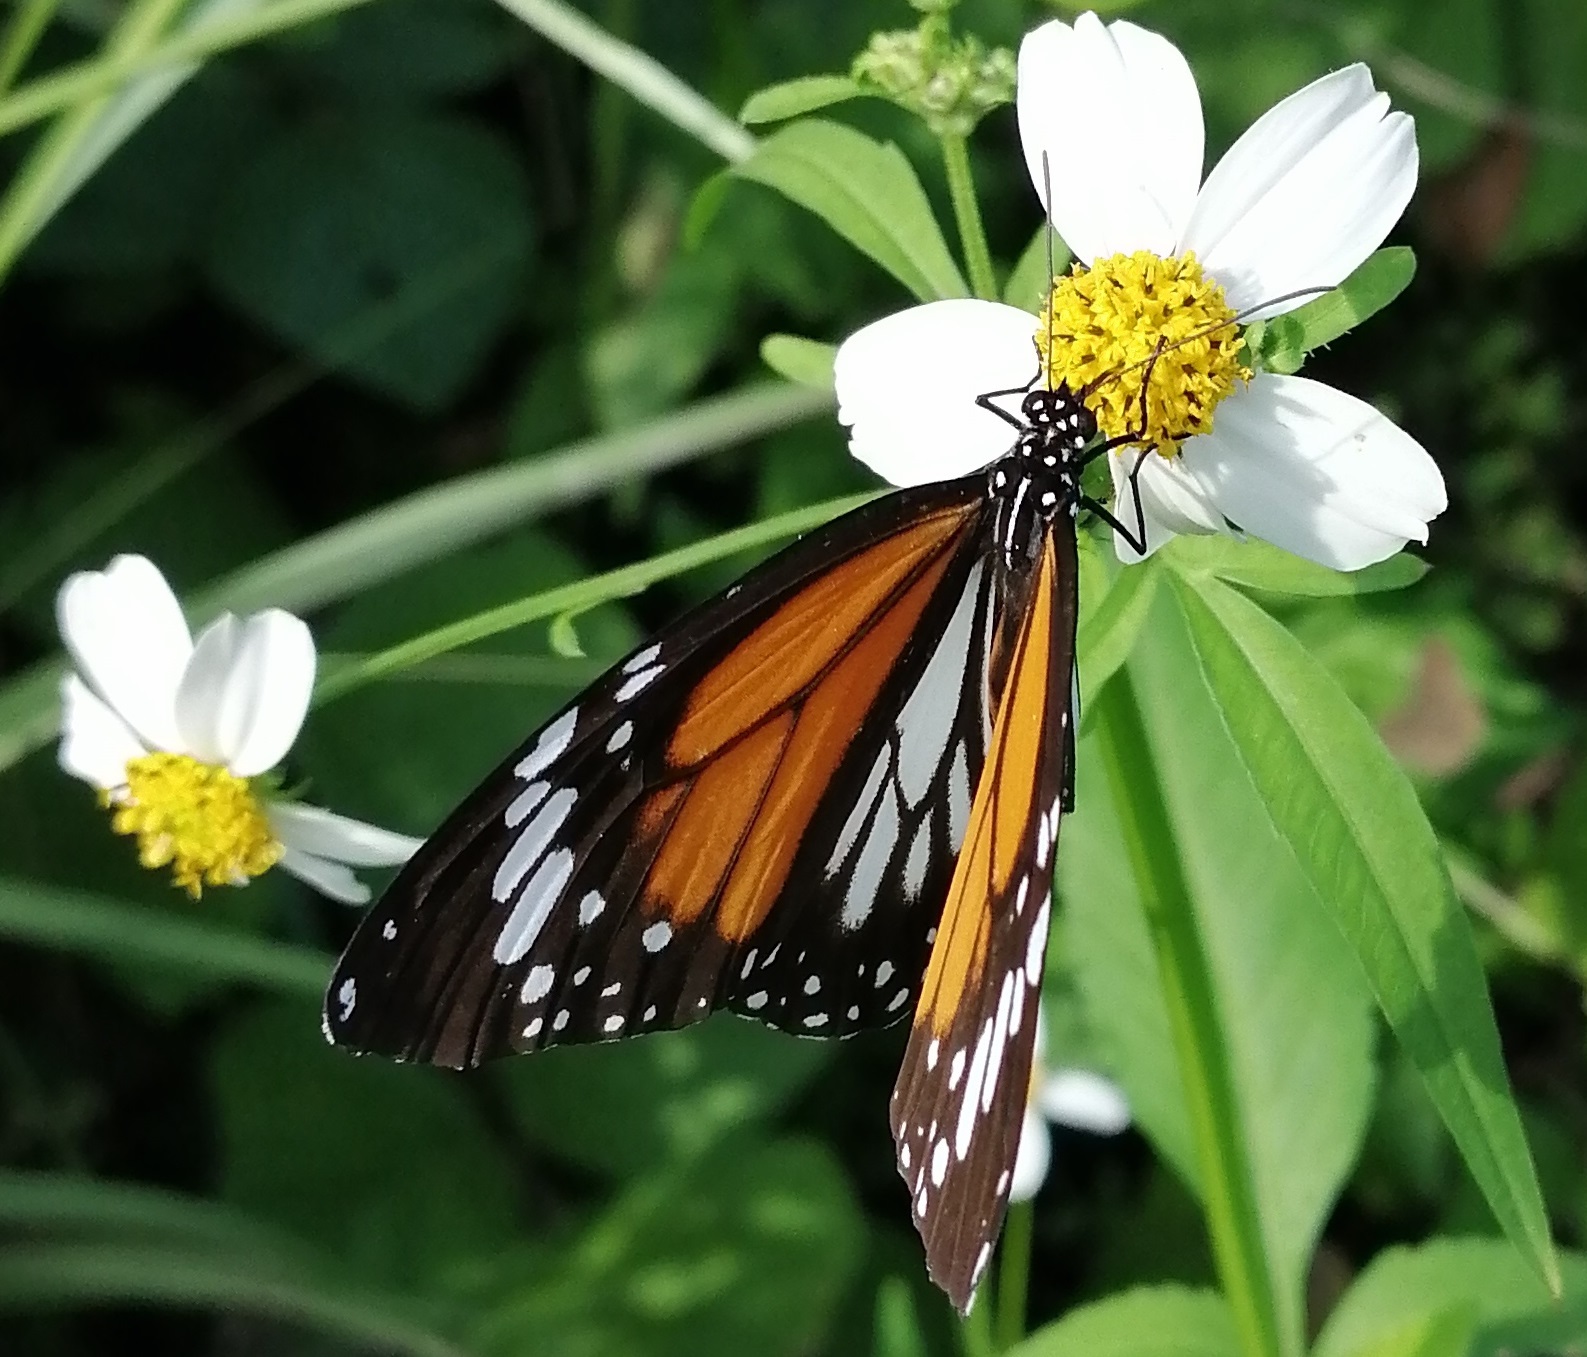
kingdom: Animalia
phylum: Arthropoda
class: Insecta
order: Lepidoptera
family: Nymphalidae
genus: Danaus
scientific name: Danaus melanippus
